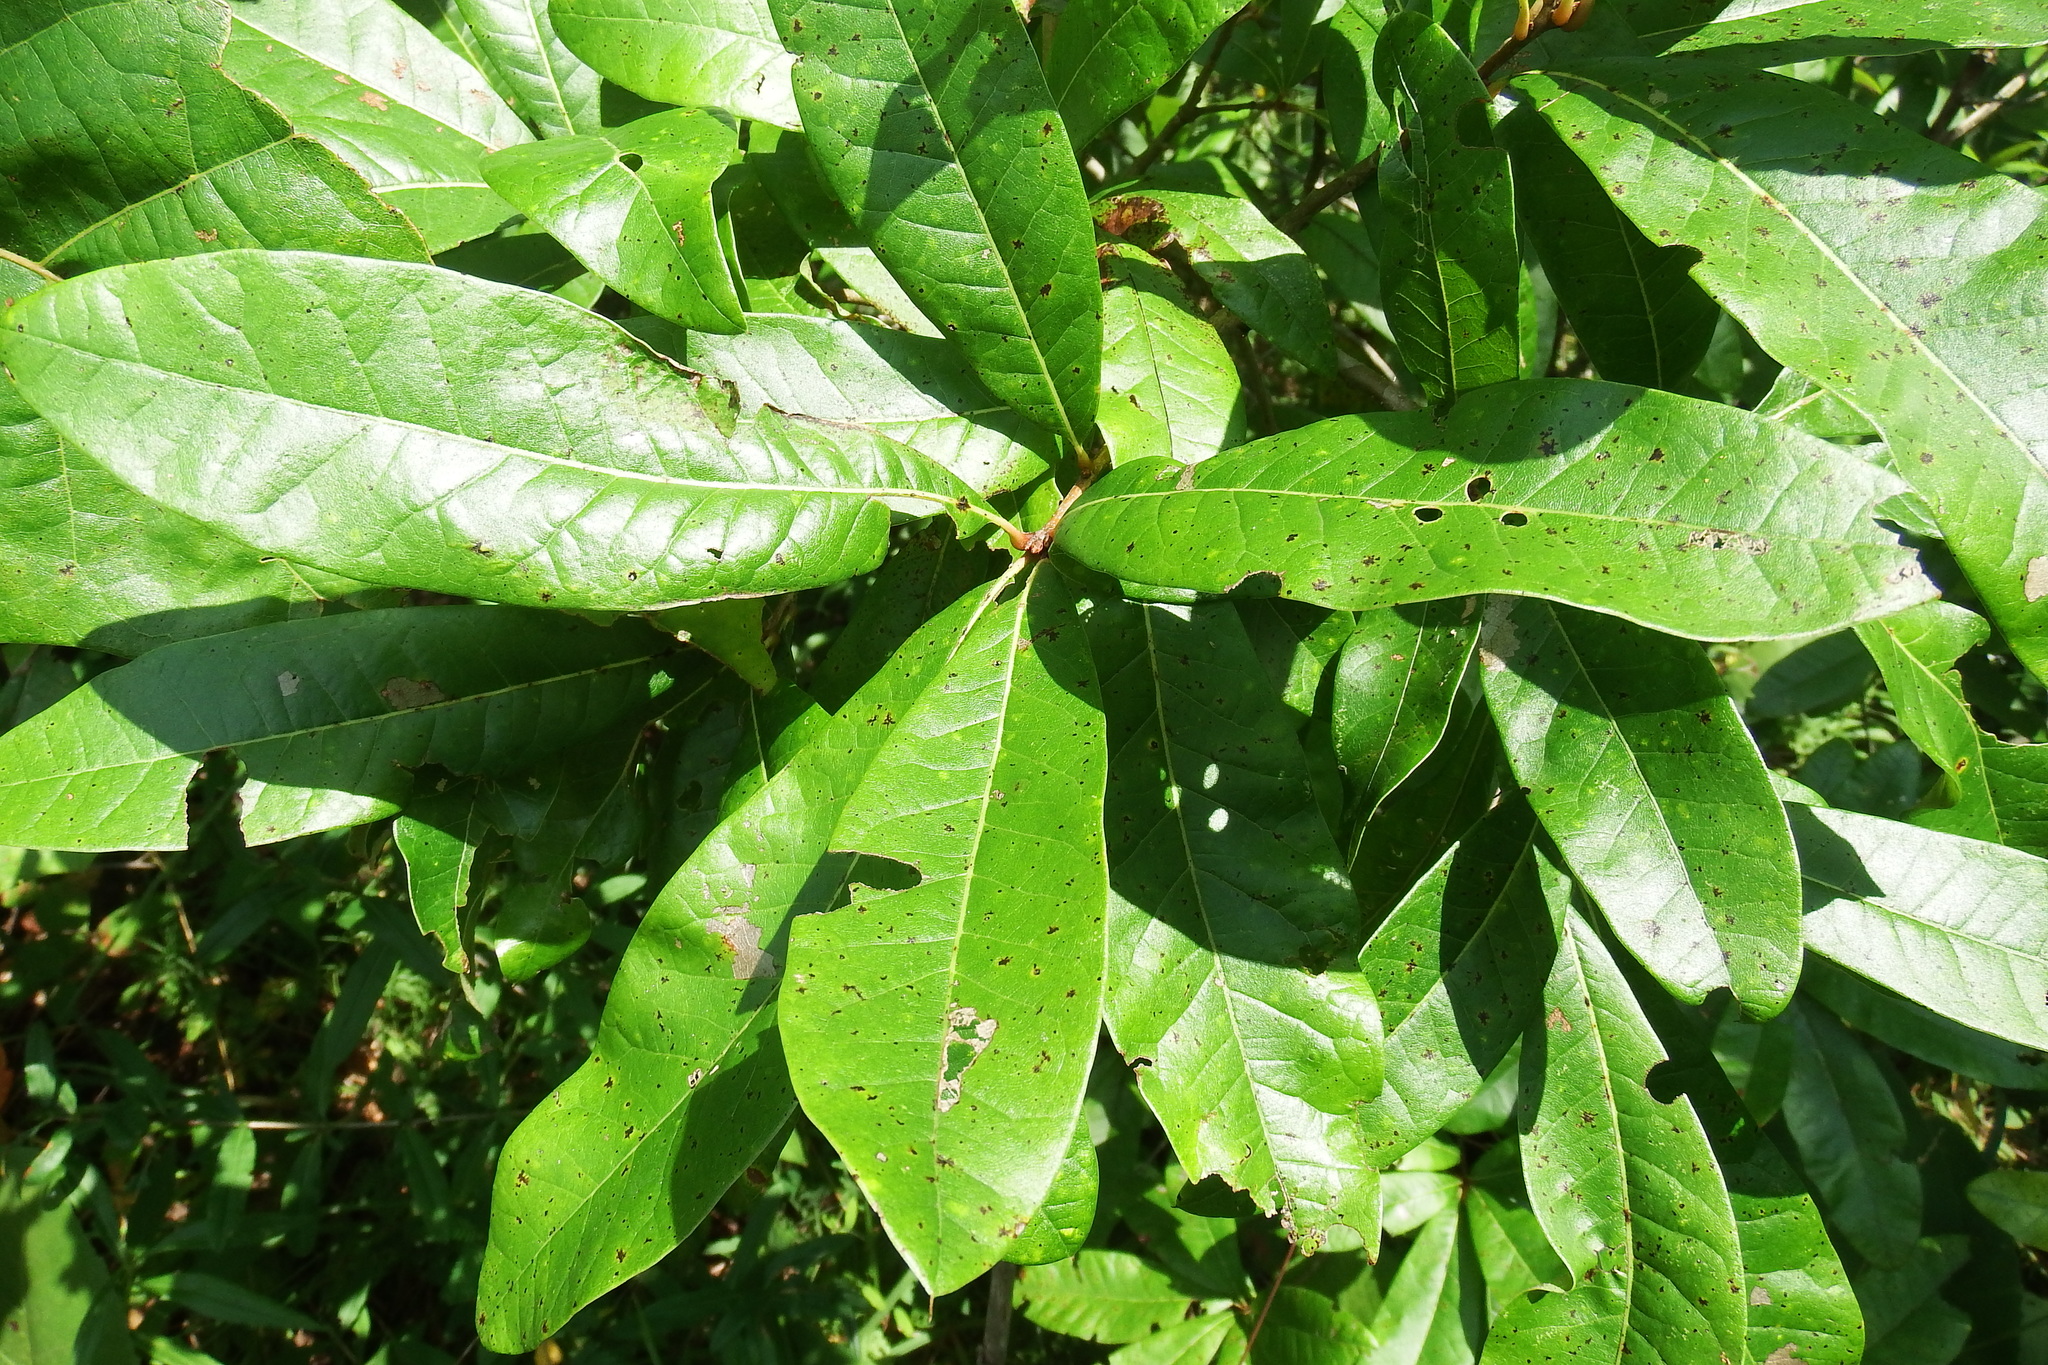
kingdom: Plantae
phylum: Tracheophyta
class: Magnoliopsida
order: Fagales
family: Fagaceae
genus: Quercus
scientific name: Quercus imbricaria
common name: Shingle oak
